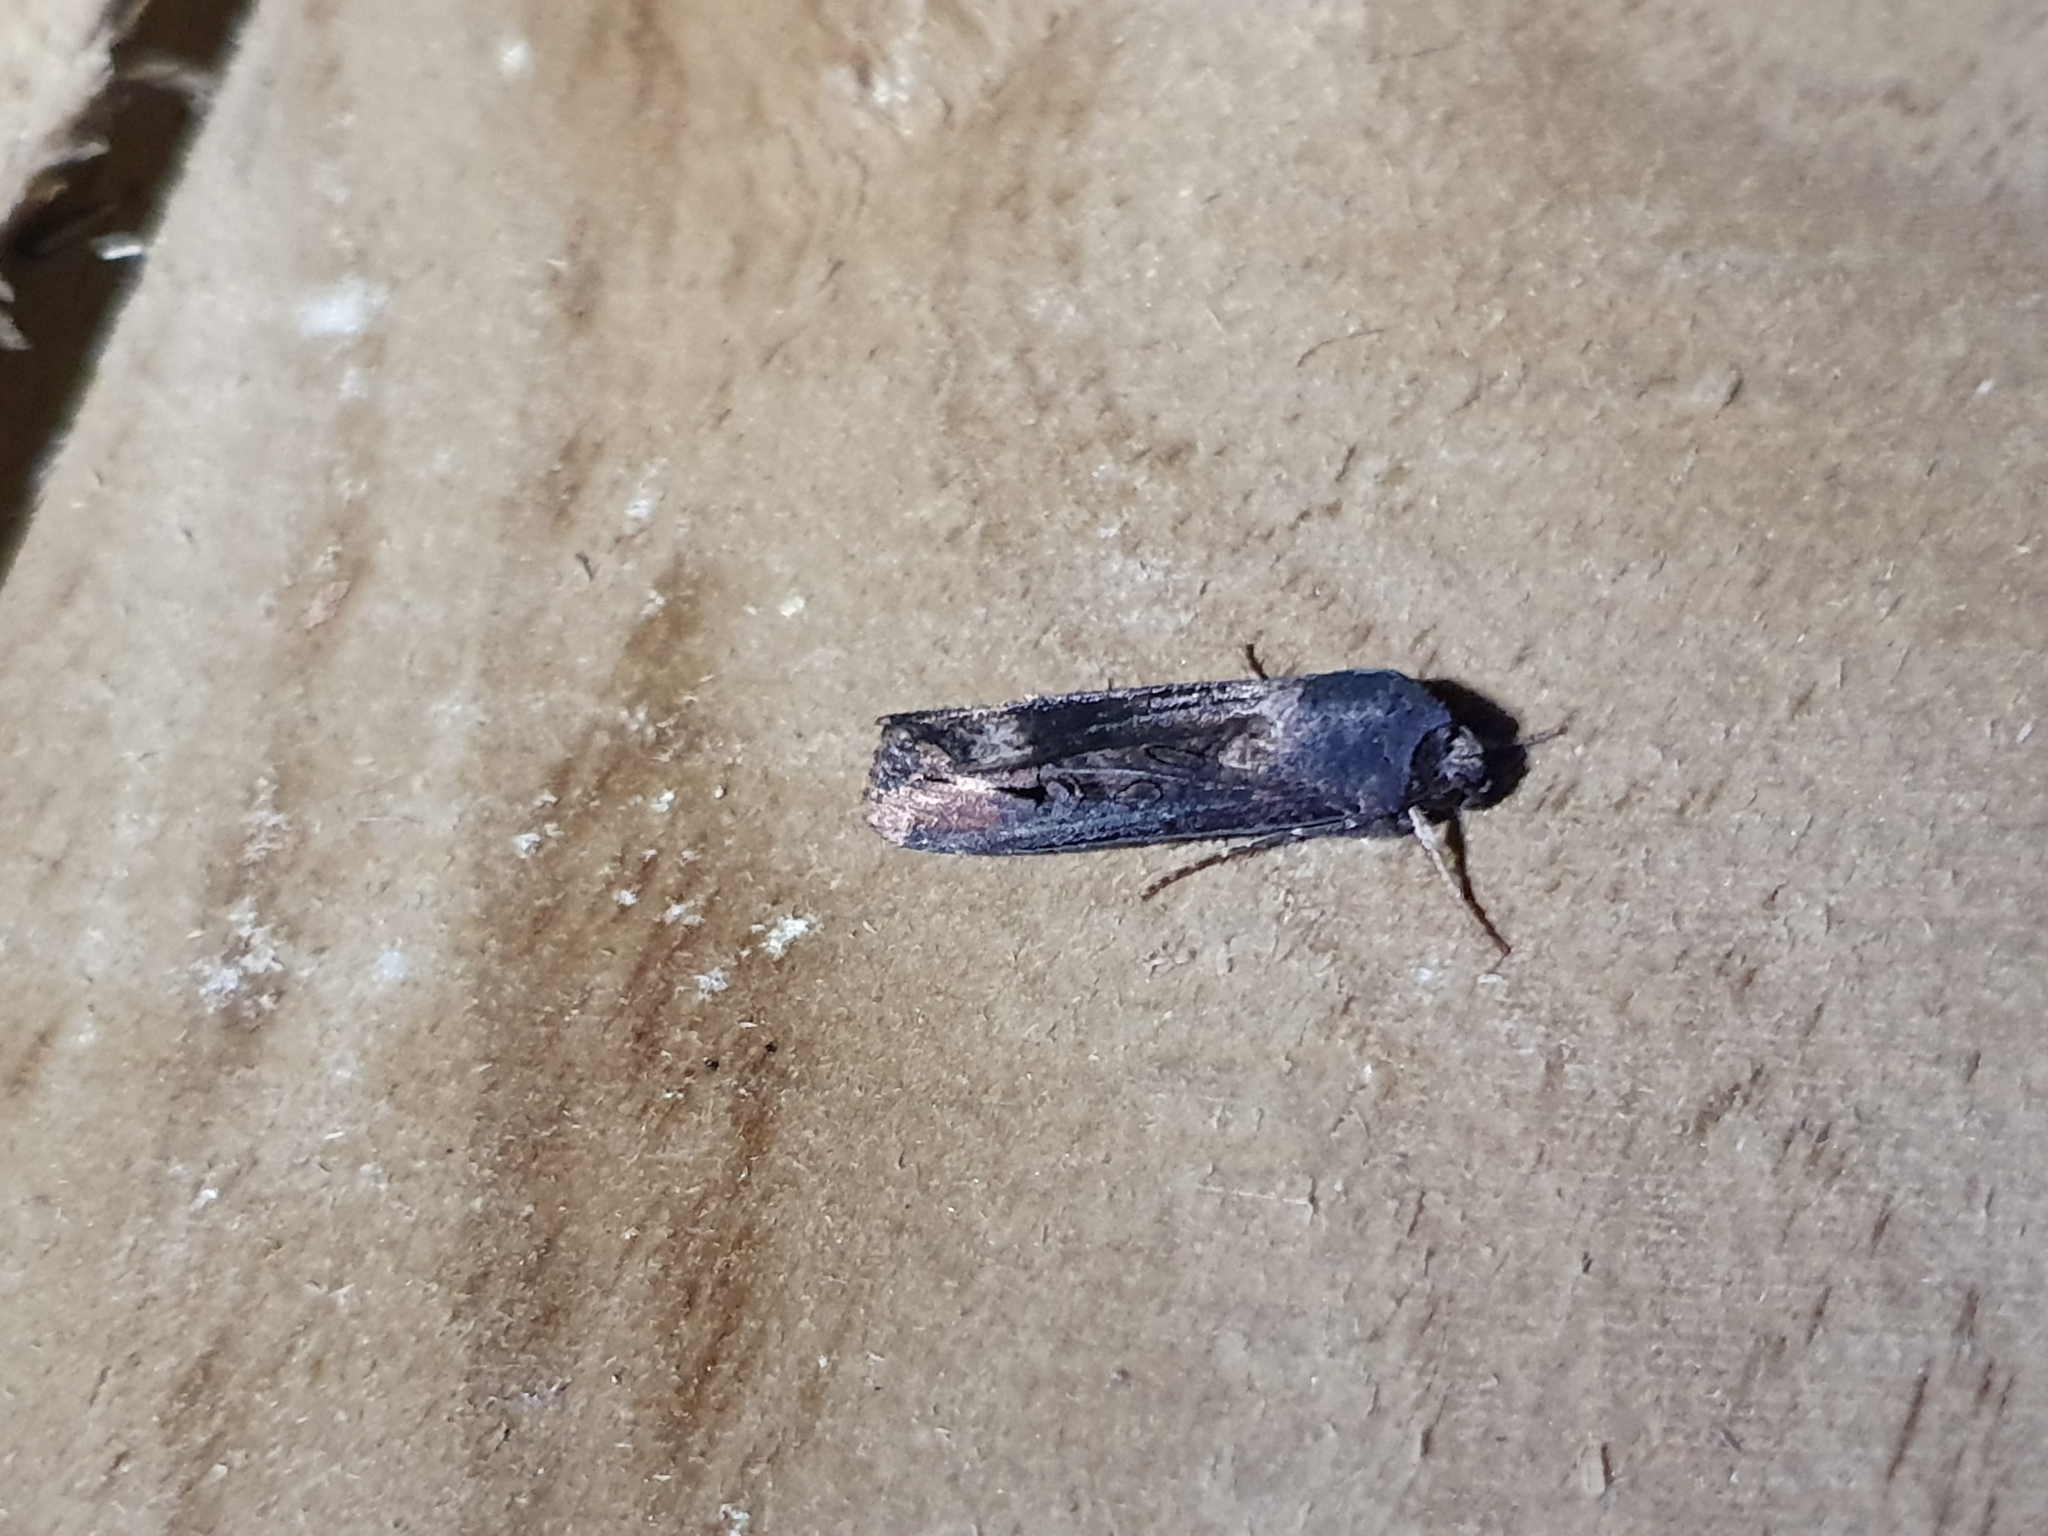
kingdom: Animalia
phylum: Arthropoda
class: Insecta
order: Lepidoptera
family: Noctuidae
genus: Agrotis
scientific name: Agrotis ipsilon
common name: Dark sword-grass
